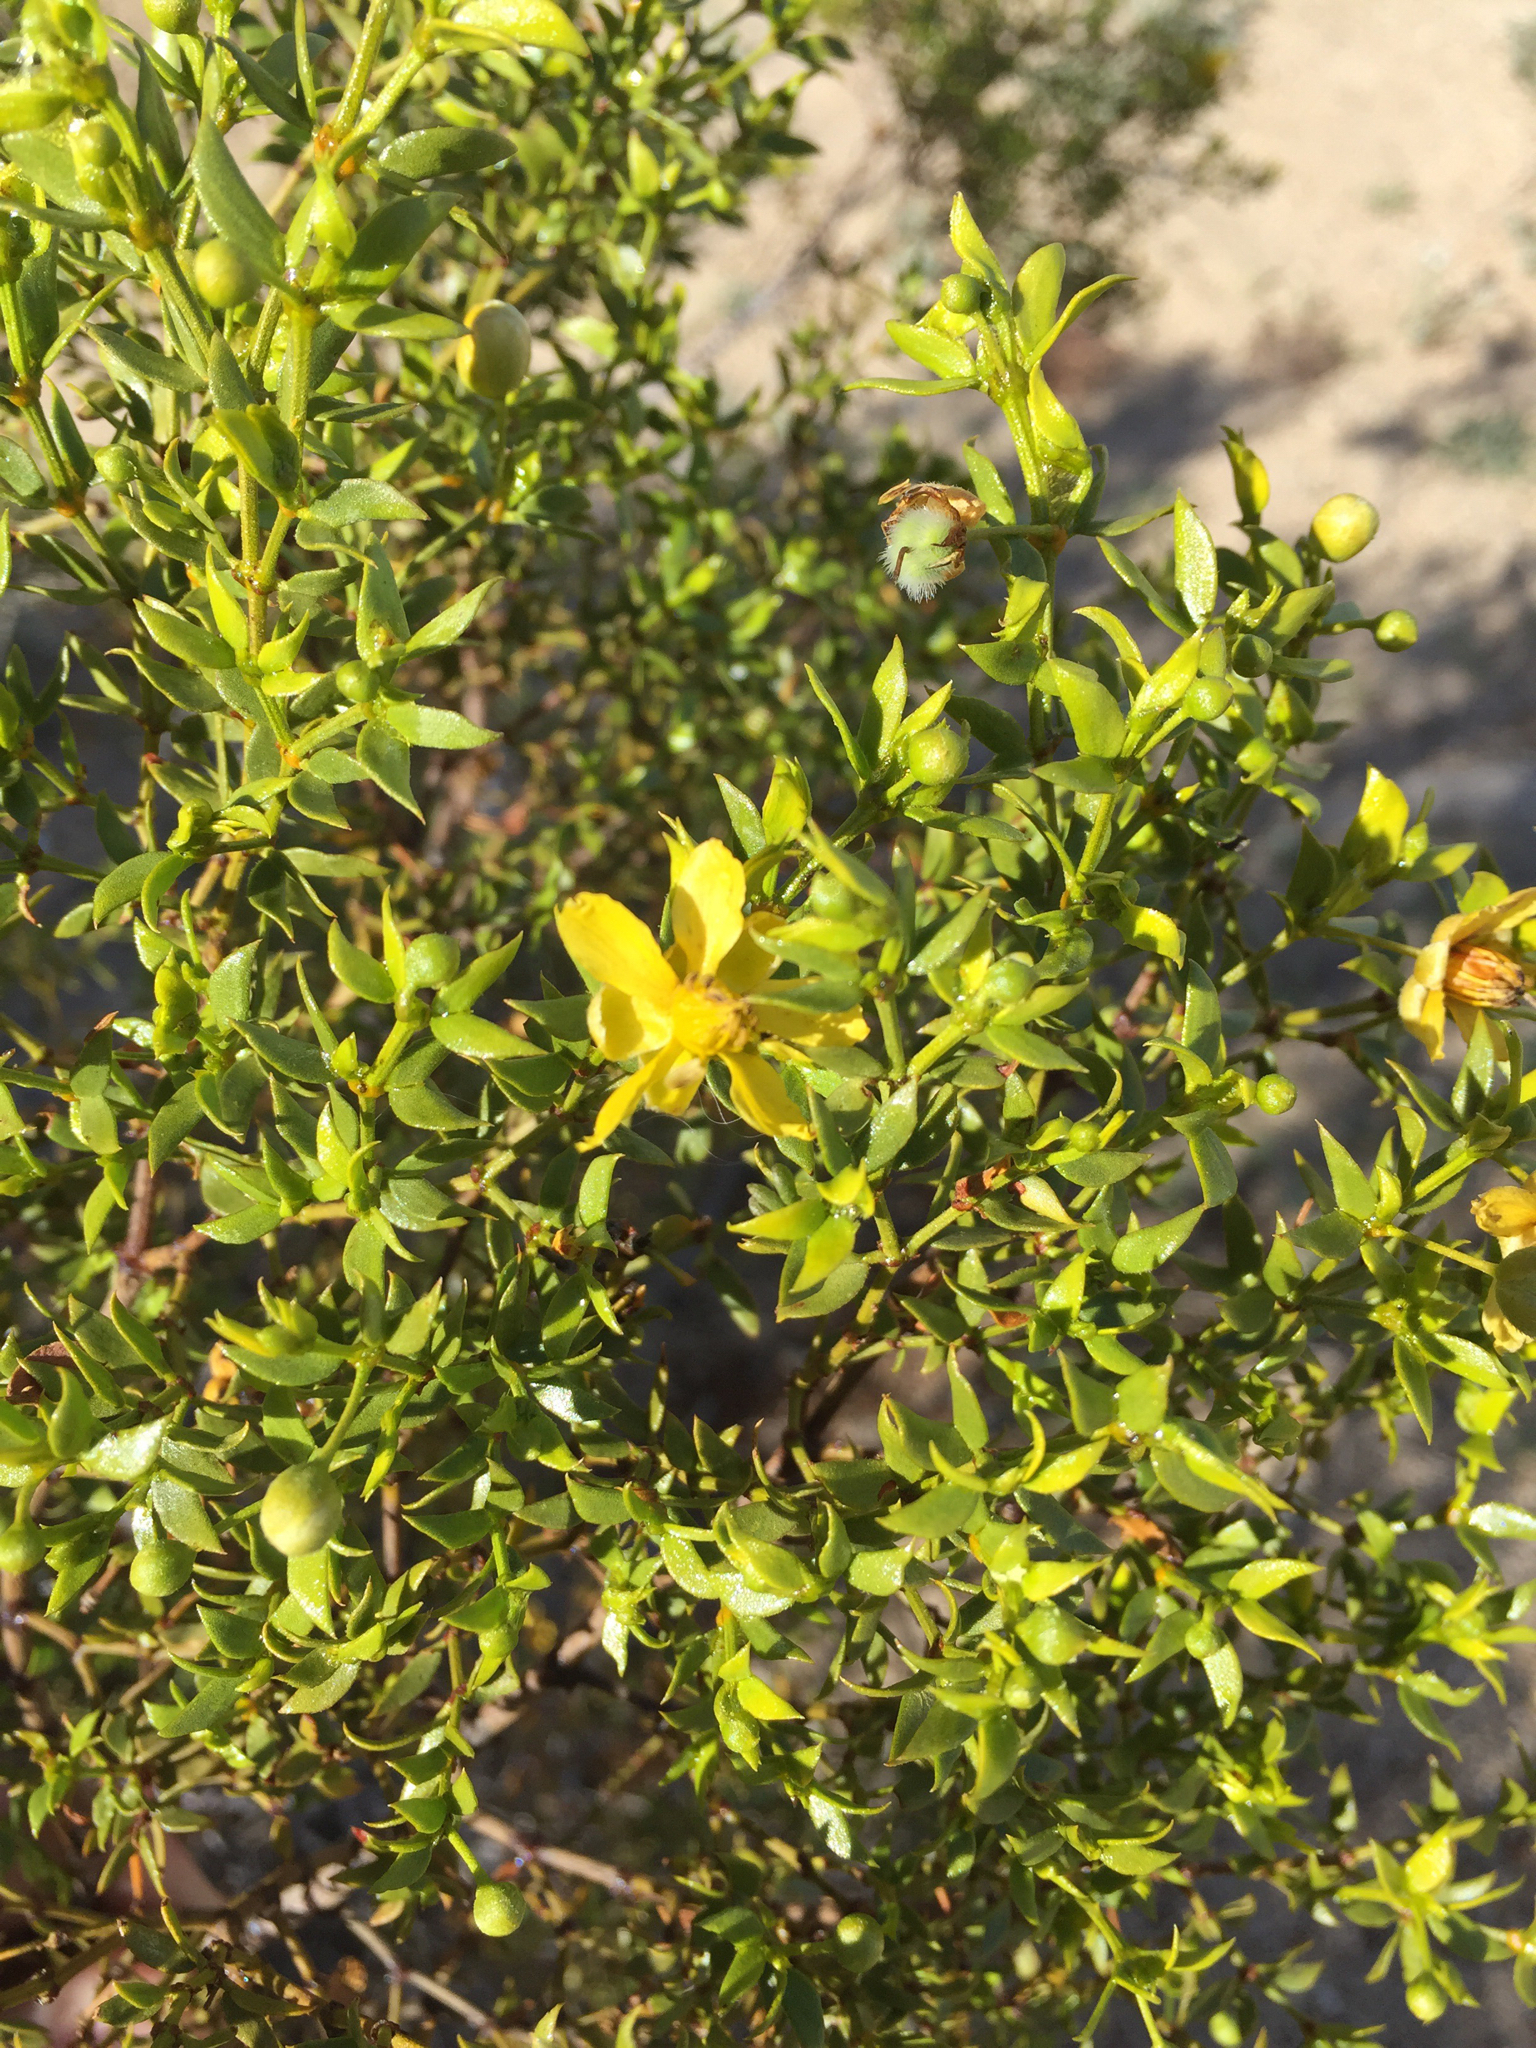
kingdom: Plantae
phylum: Tracheophyta
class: Magnoliopsida
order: Zygophyllales
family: Zygophyllaceae
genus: Larrea
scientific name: Larrea tridentata
